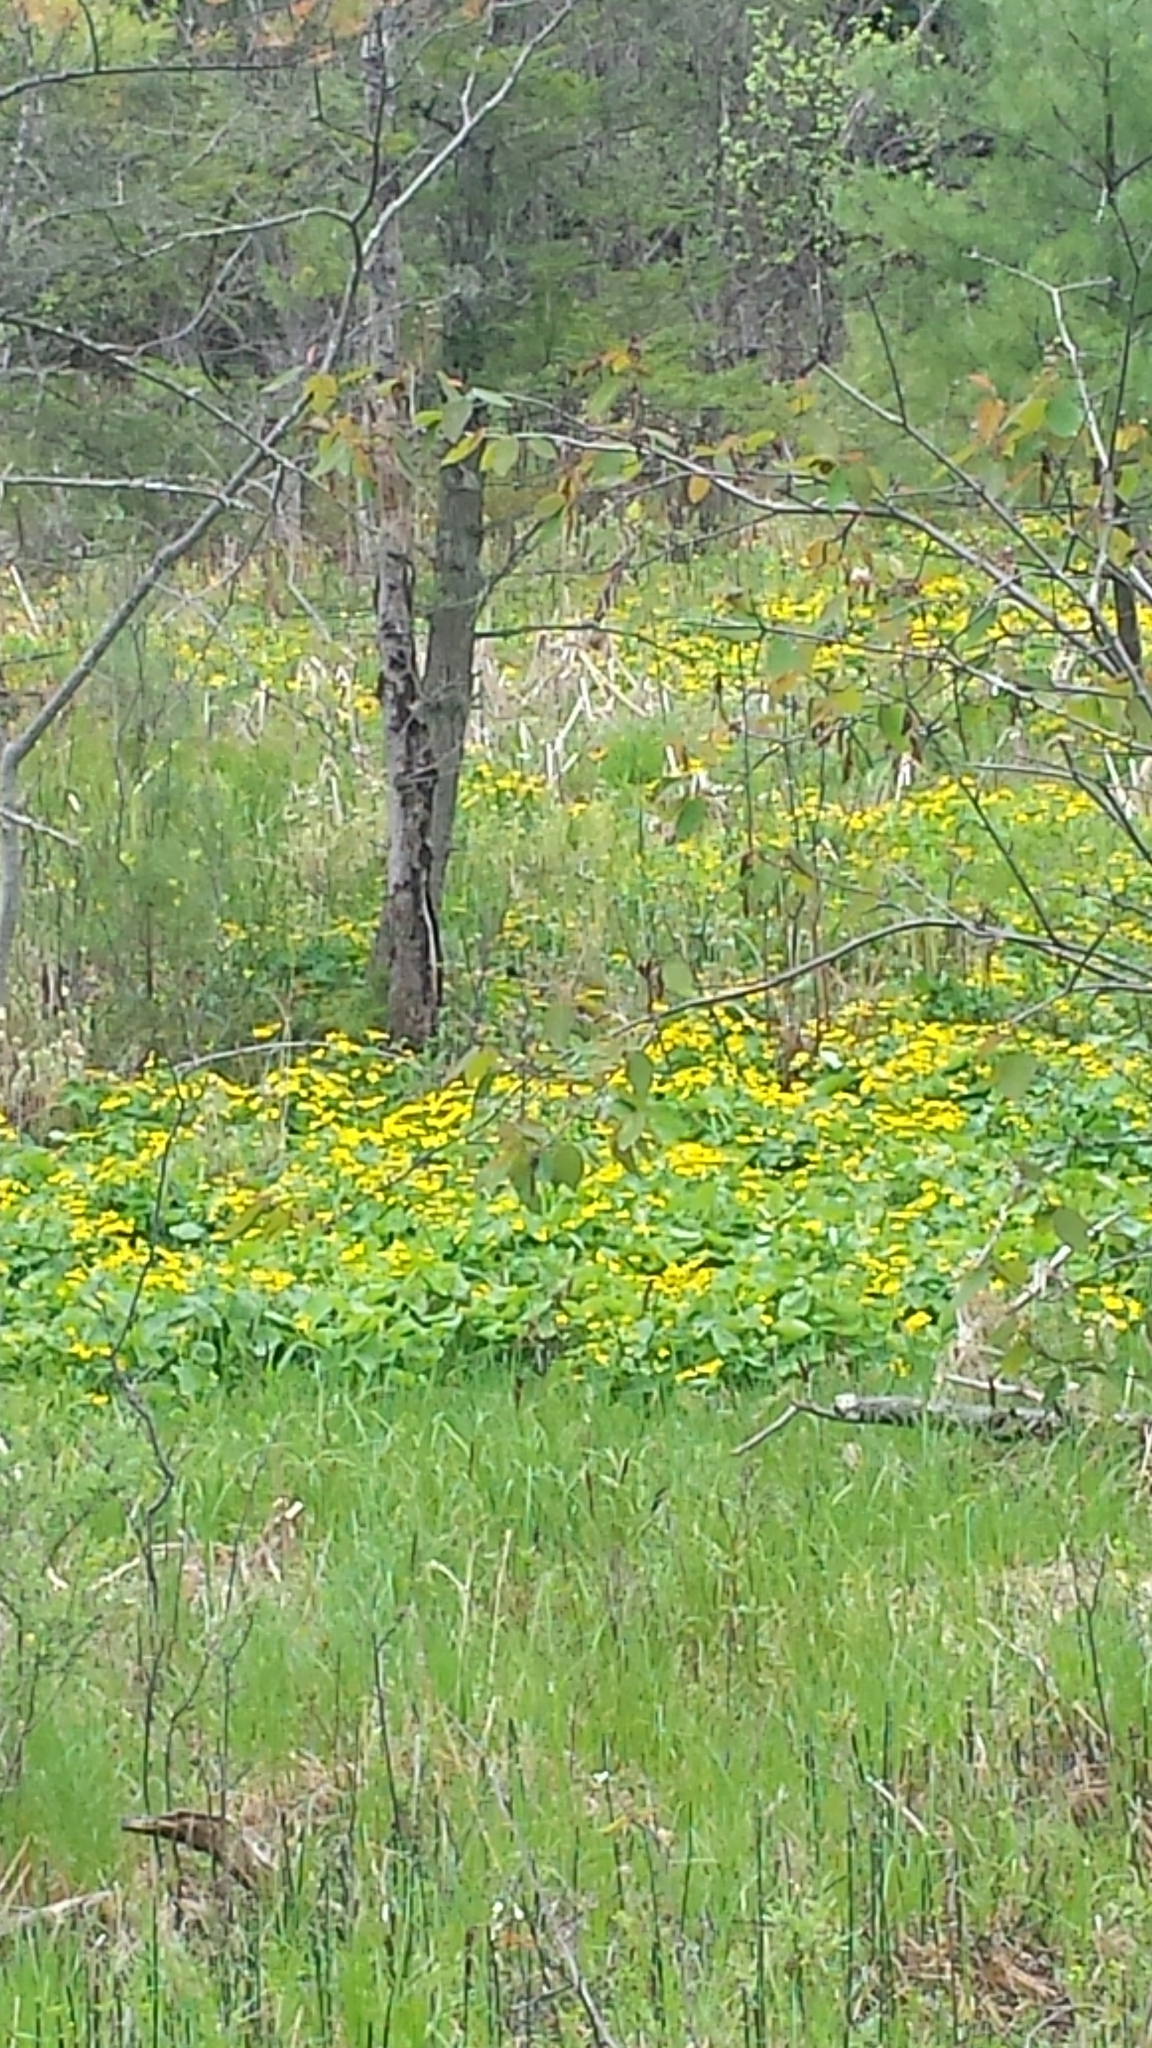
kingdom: Plantae
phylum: Tracheophyta
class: Magnoliopsida
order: Ranunculales
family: Ranunculaceae
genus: Caltha
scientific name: Caltha palustris
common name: Marsh marigold
